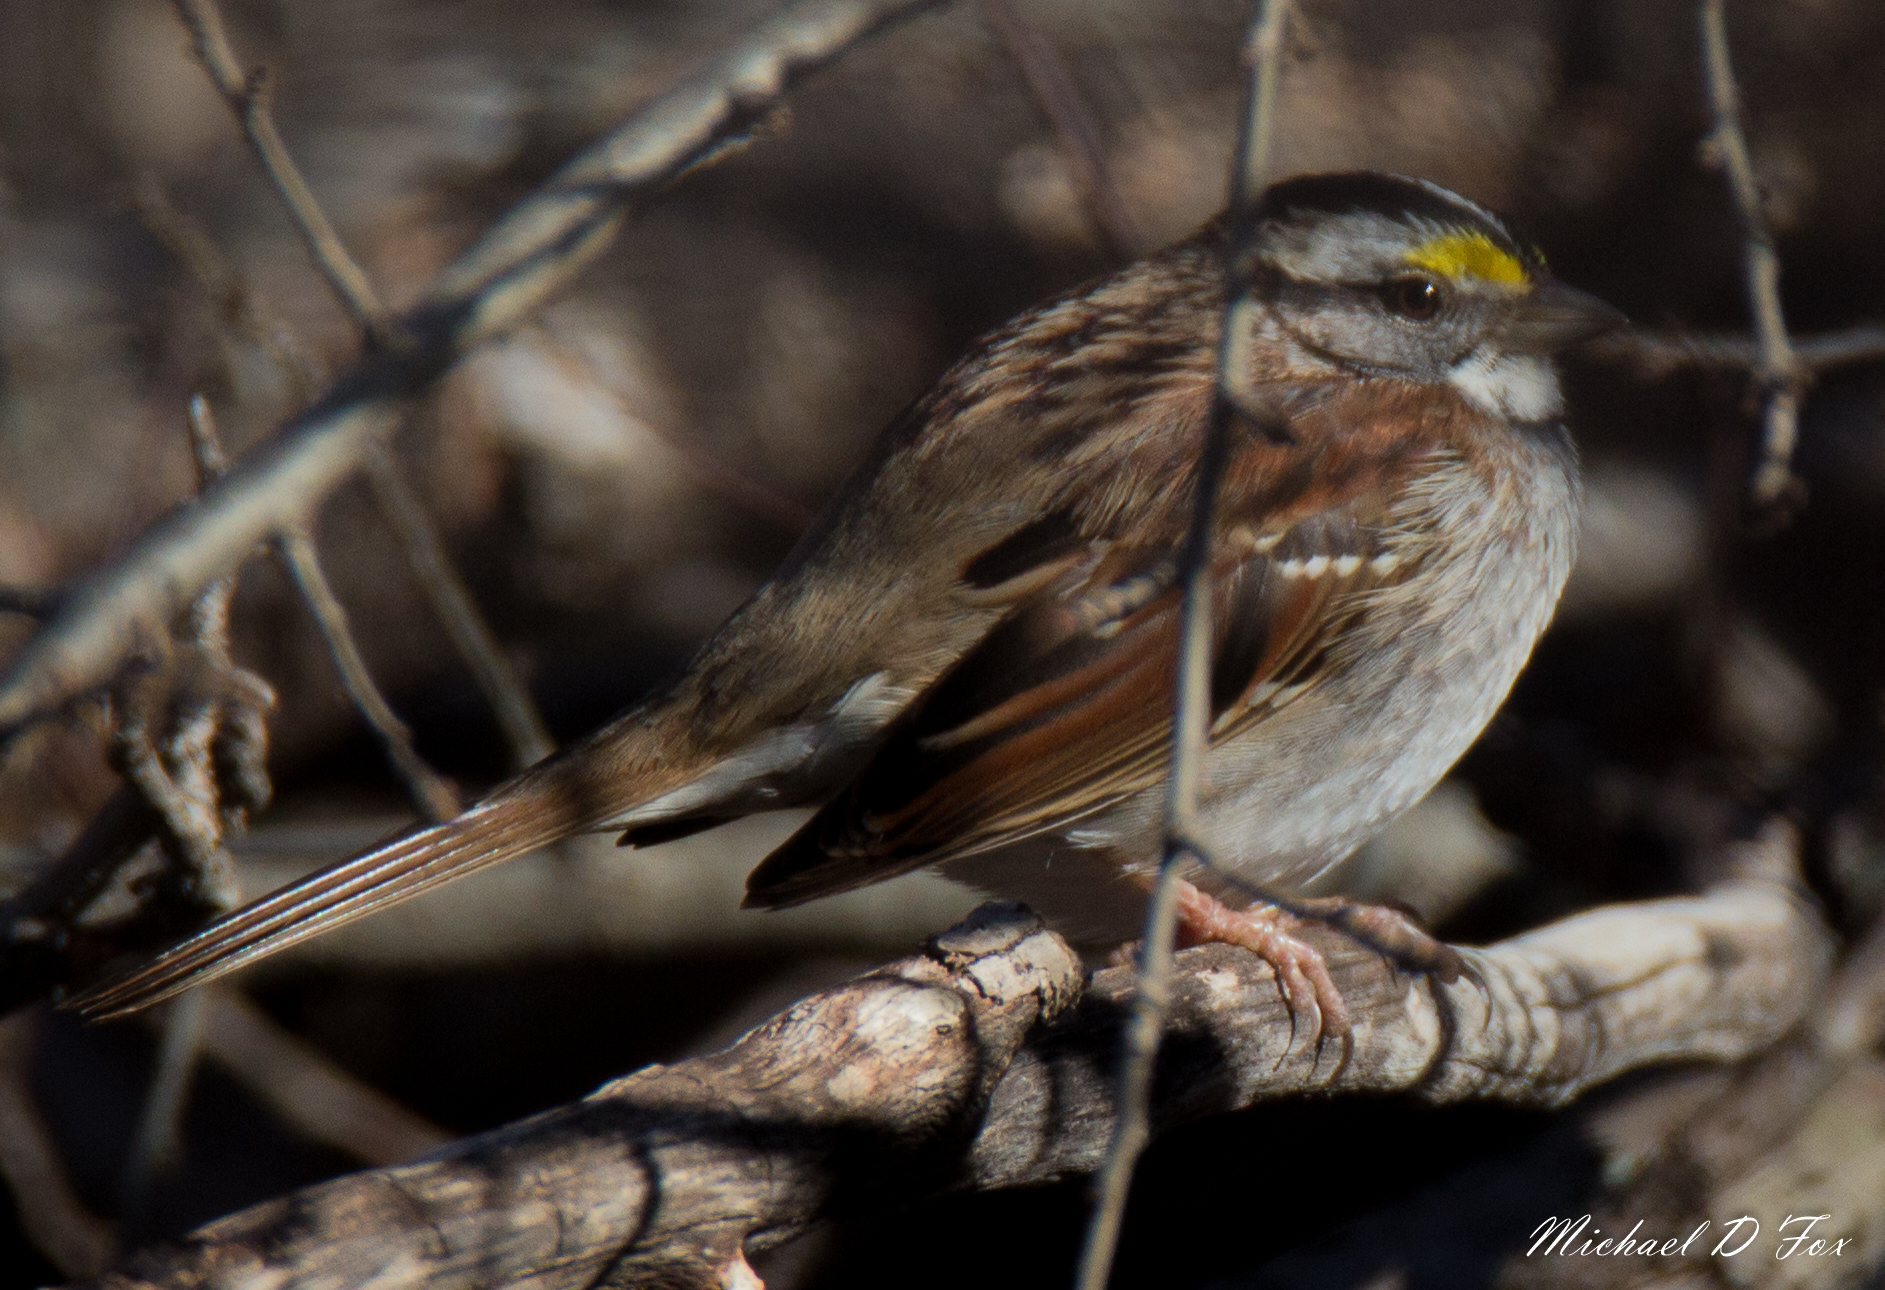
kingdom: Animalia
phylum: Chordata
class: Aves
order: Passeriformes
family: Passerellidae
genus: Zonotrichia
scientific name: Zonotrichia albicollis
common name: White-throated sparrow
